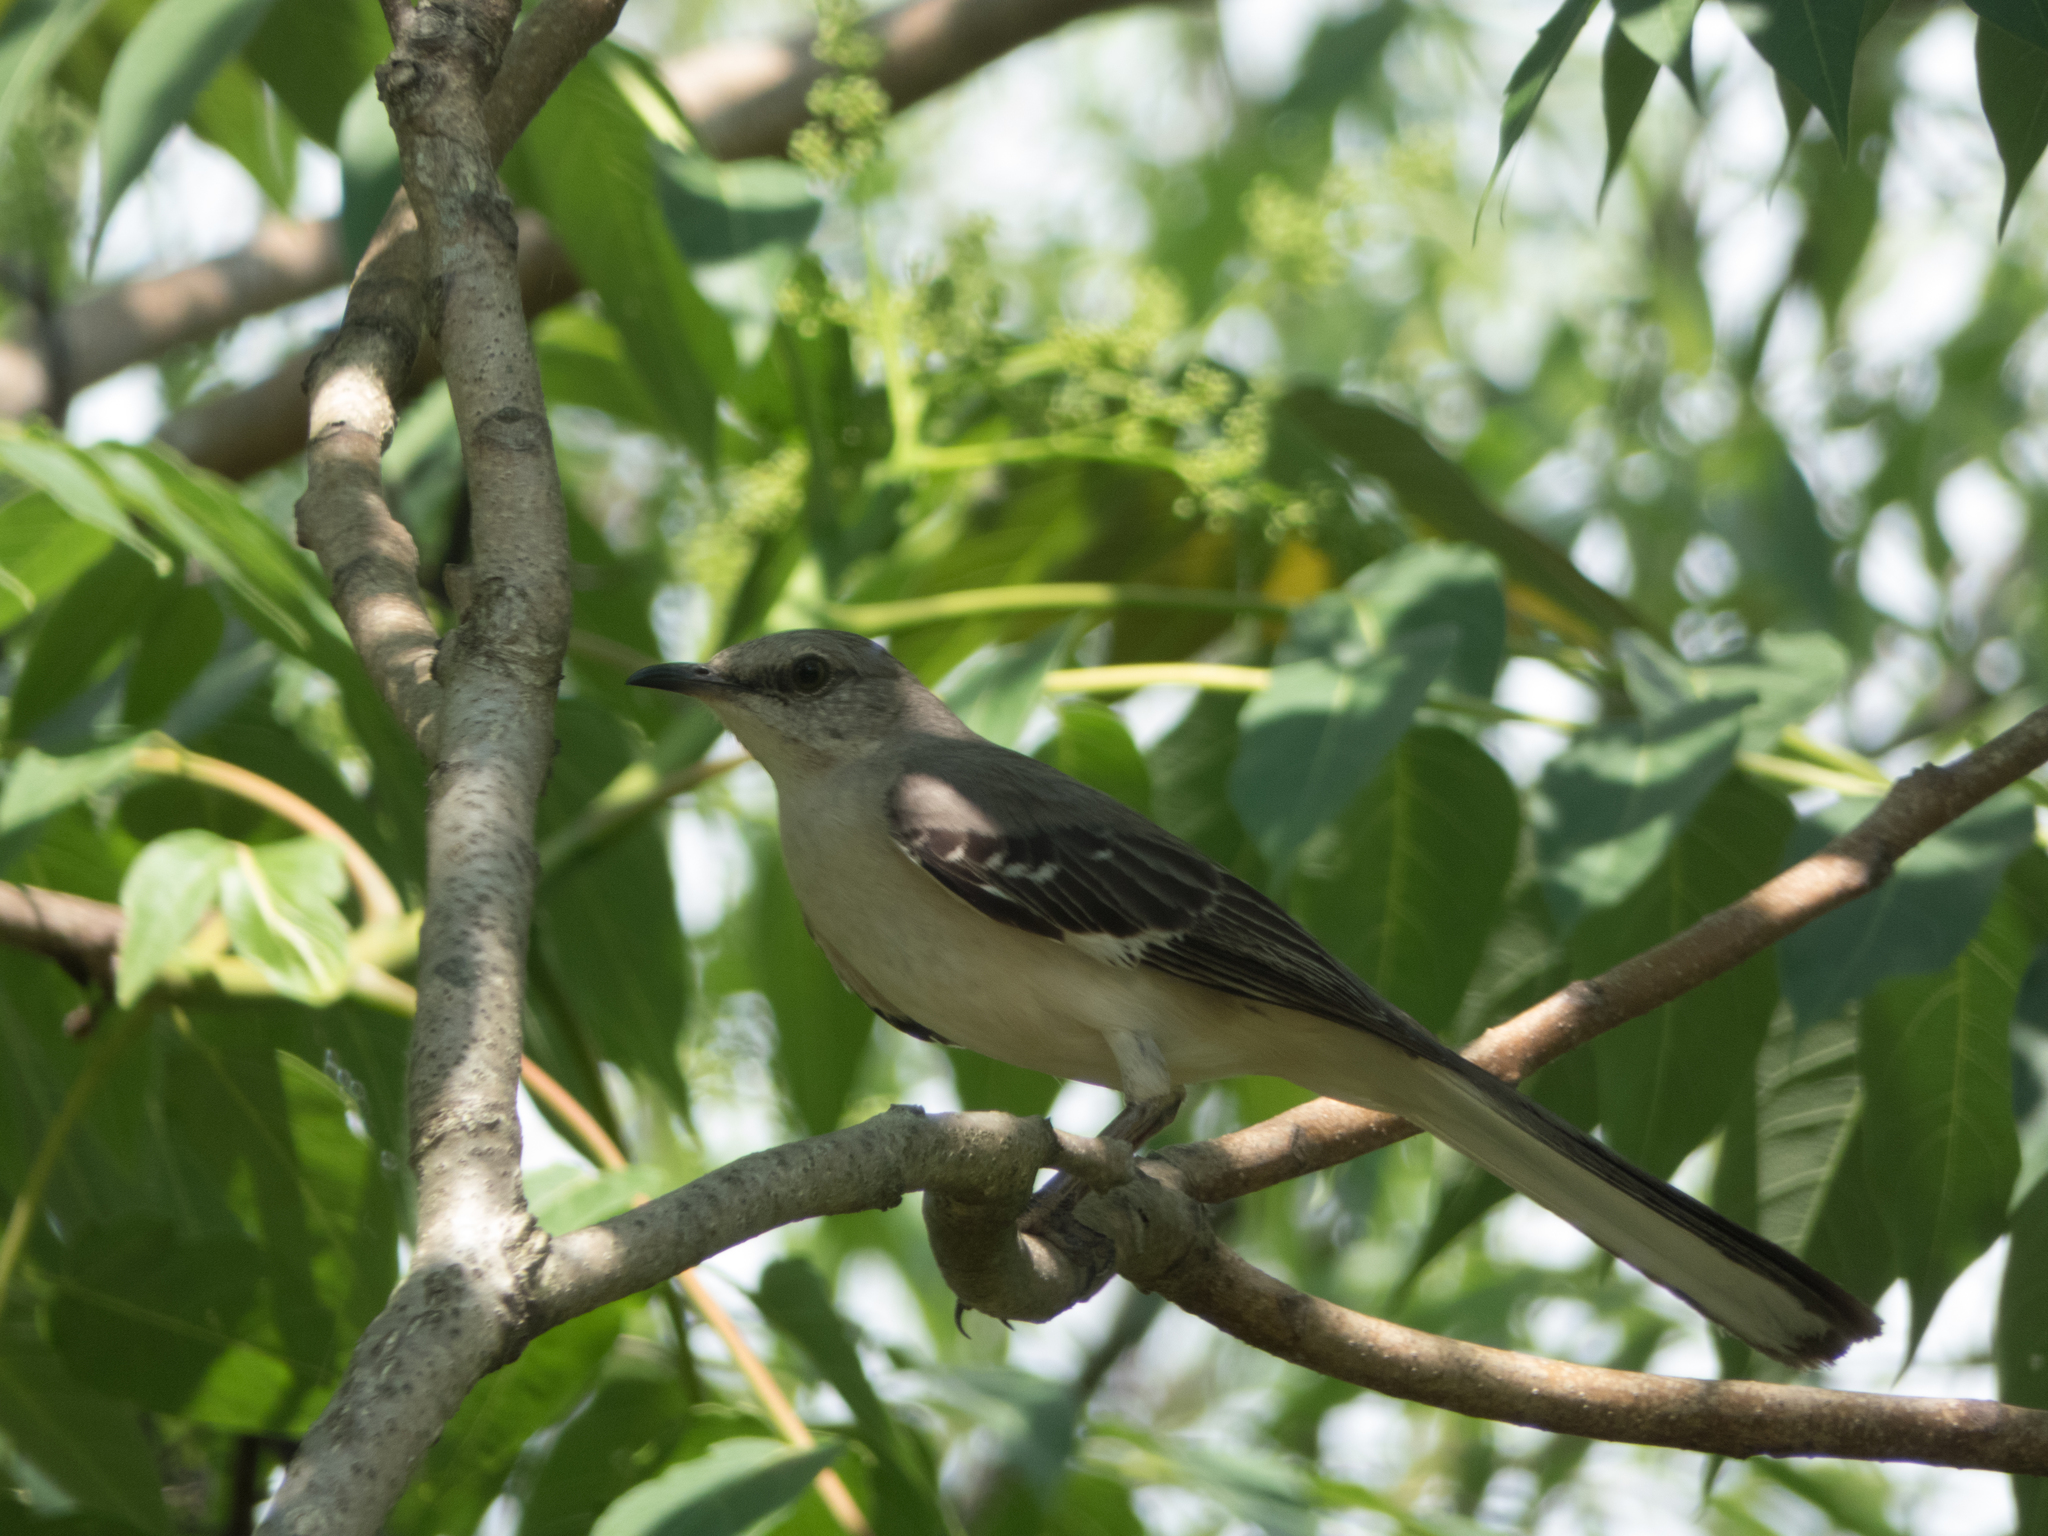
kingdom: Animalia
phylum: Chordata
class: Aves
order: Passeriformes
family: Mimidae
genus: Mimus
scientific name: Mimus polyglottos
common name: Northern mockingbird
